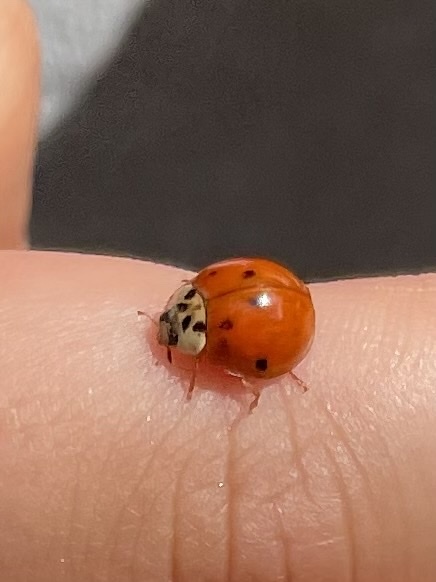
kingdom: Animalia
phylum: Arthropoda
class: Insecta
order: Coleoptera
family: Coccinellidae
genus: Harmonia
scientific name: Harmonia axyridis
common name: Harlequin ladybird
